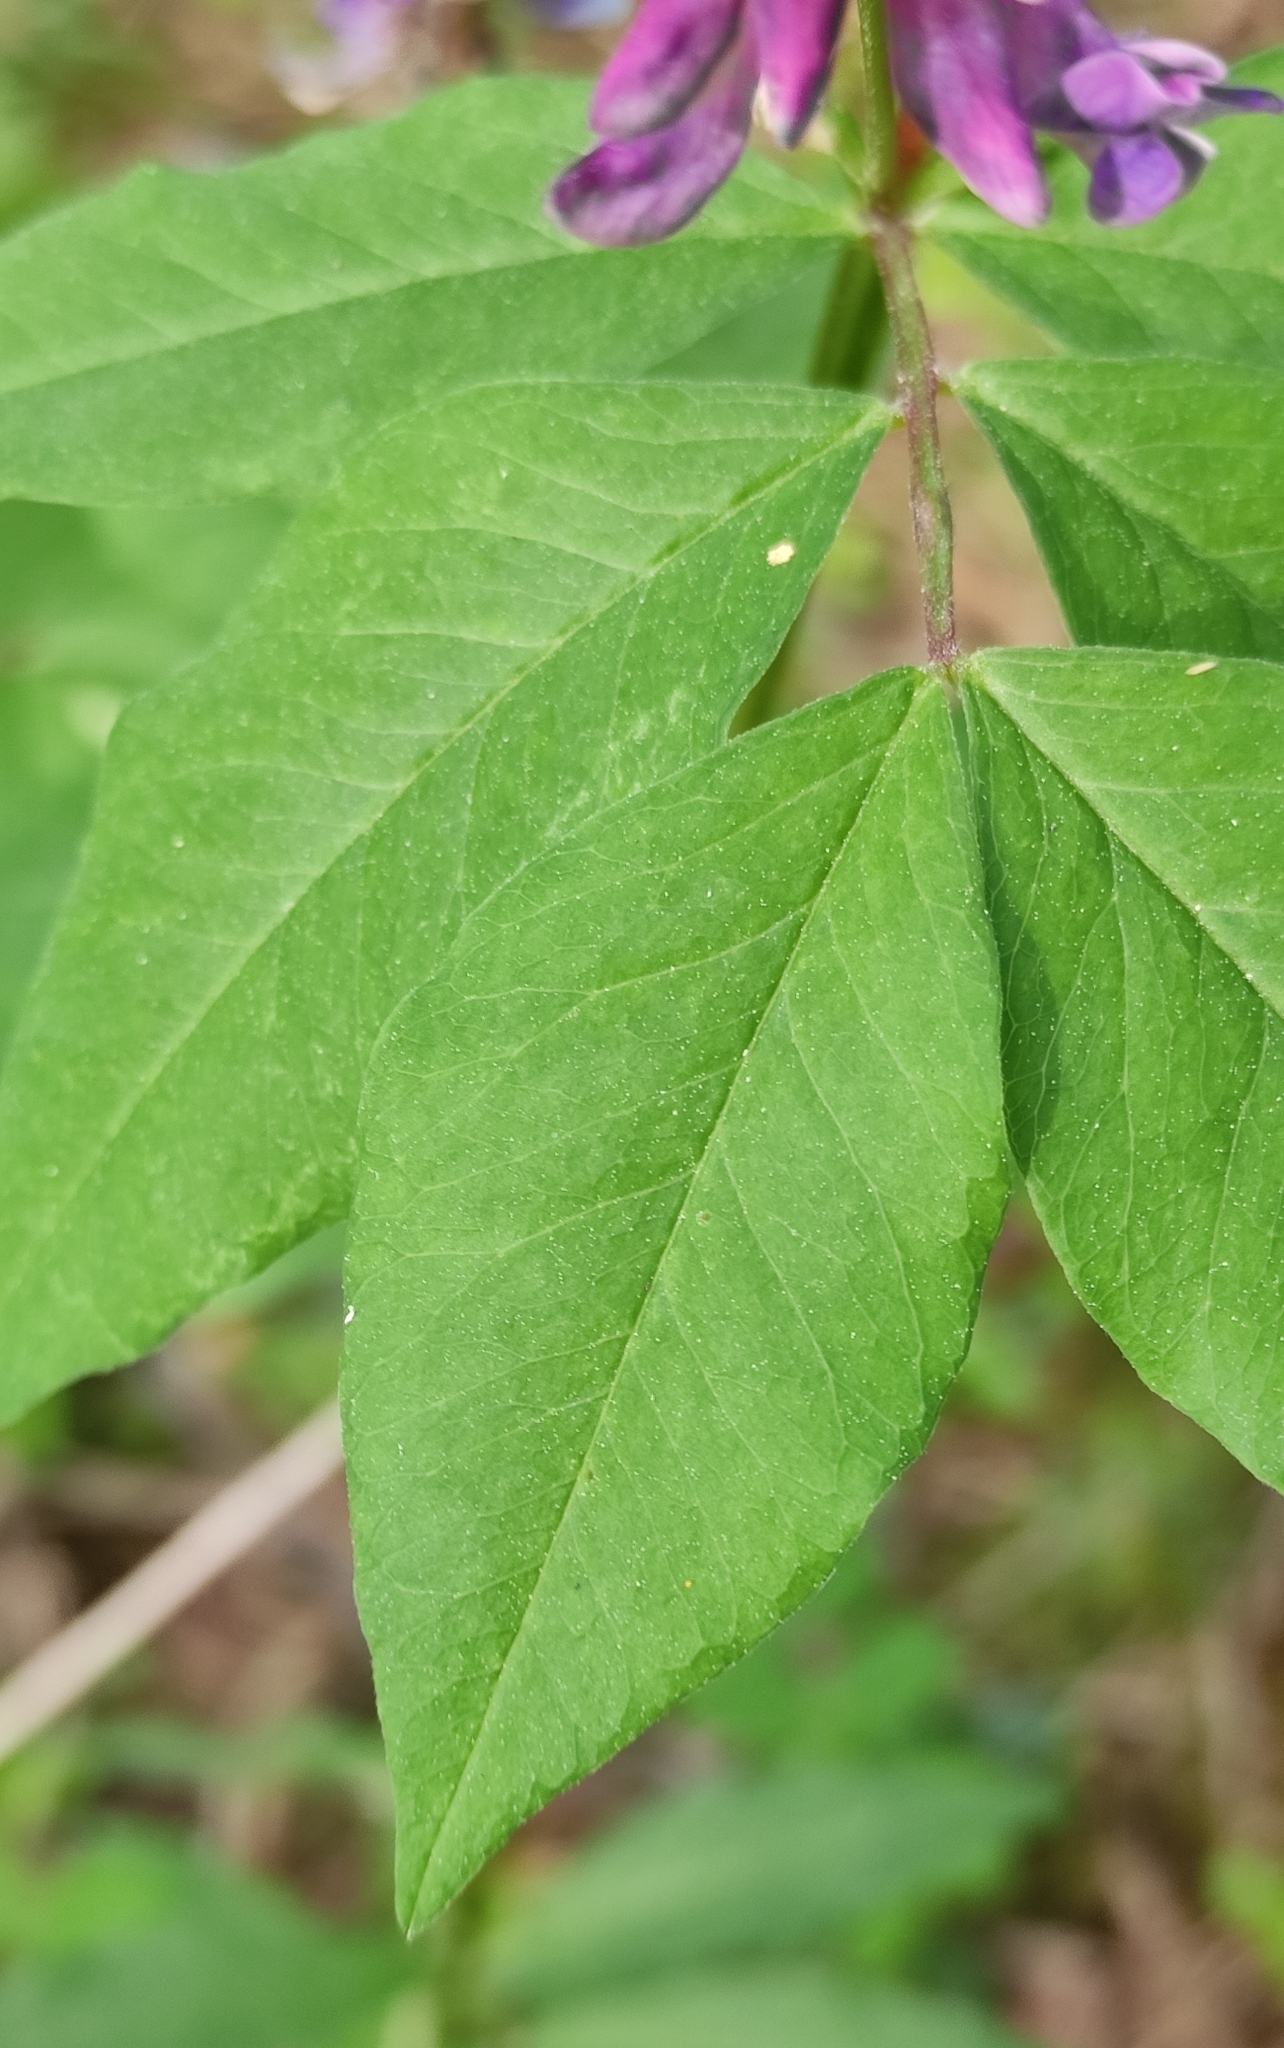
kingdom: Plantae
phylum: Tracheophyta
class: Magnoliopsida
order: Fabales
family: Fabaceae
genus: Vicia
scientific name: Vicia ramuliflora
